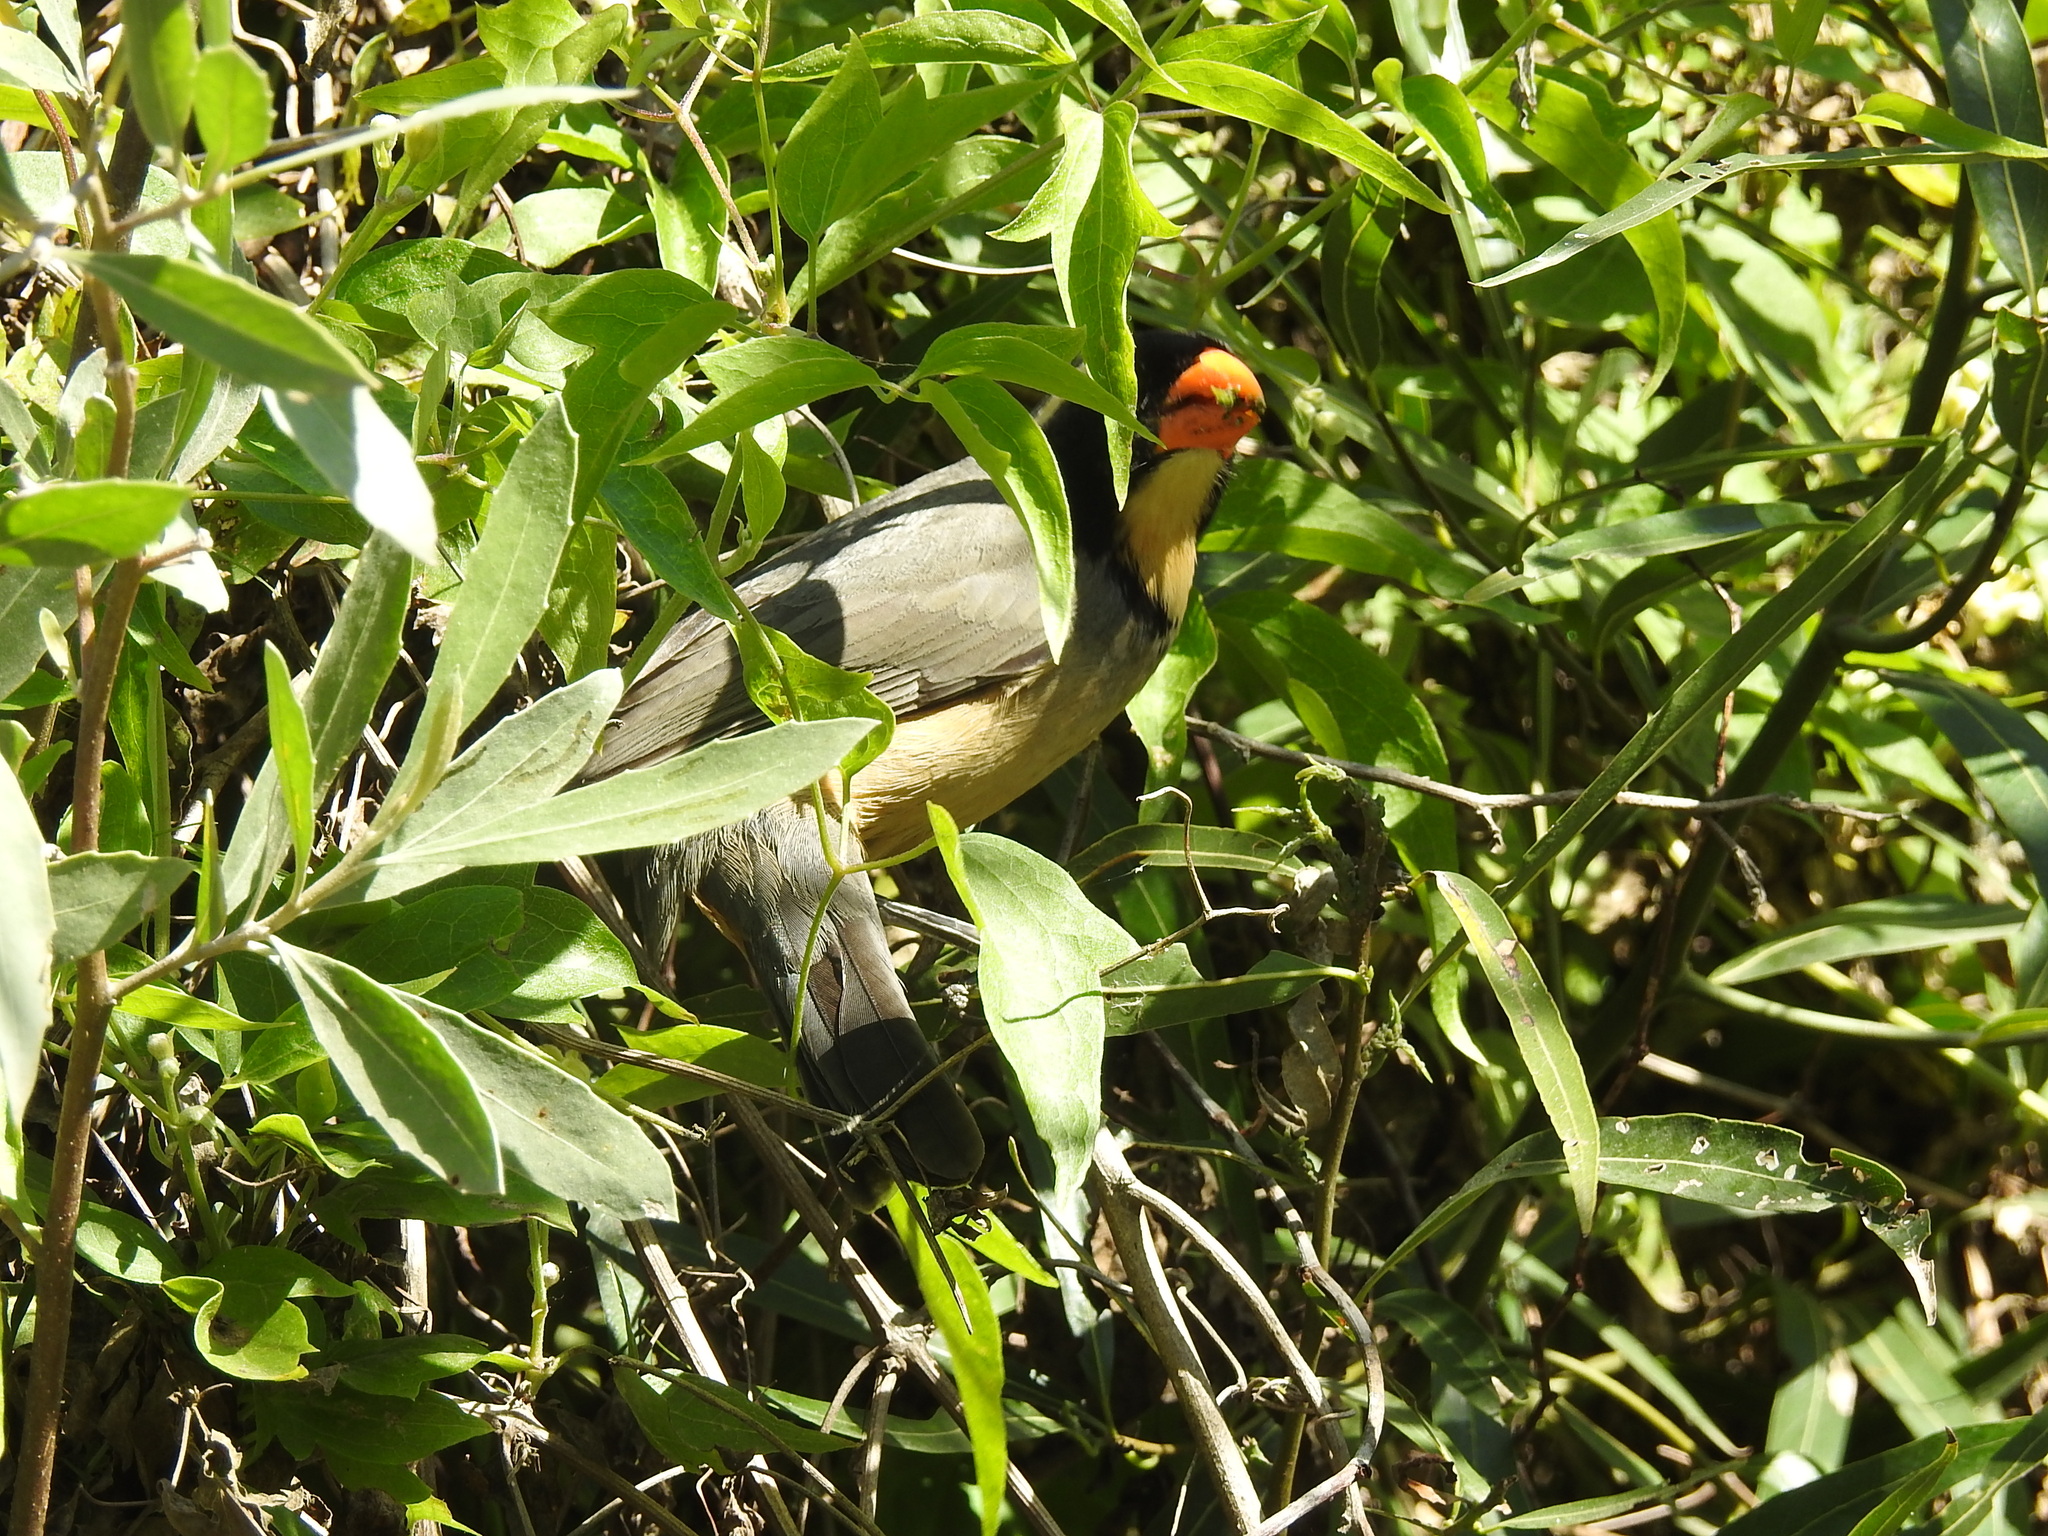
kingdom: Animalia
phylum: Chordata
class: Aves
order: Passeriformes
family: Thraupidae
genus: Saltator
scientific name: Saltator aurantiirostris
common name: Golden-billed saltator
